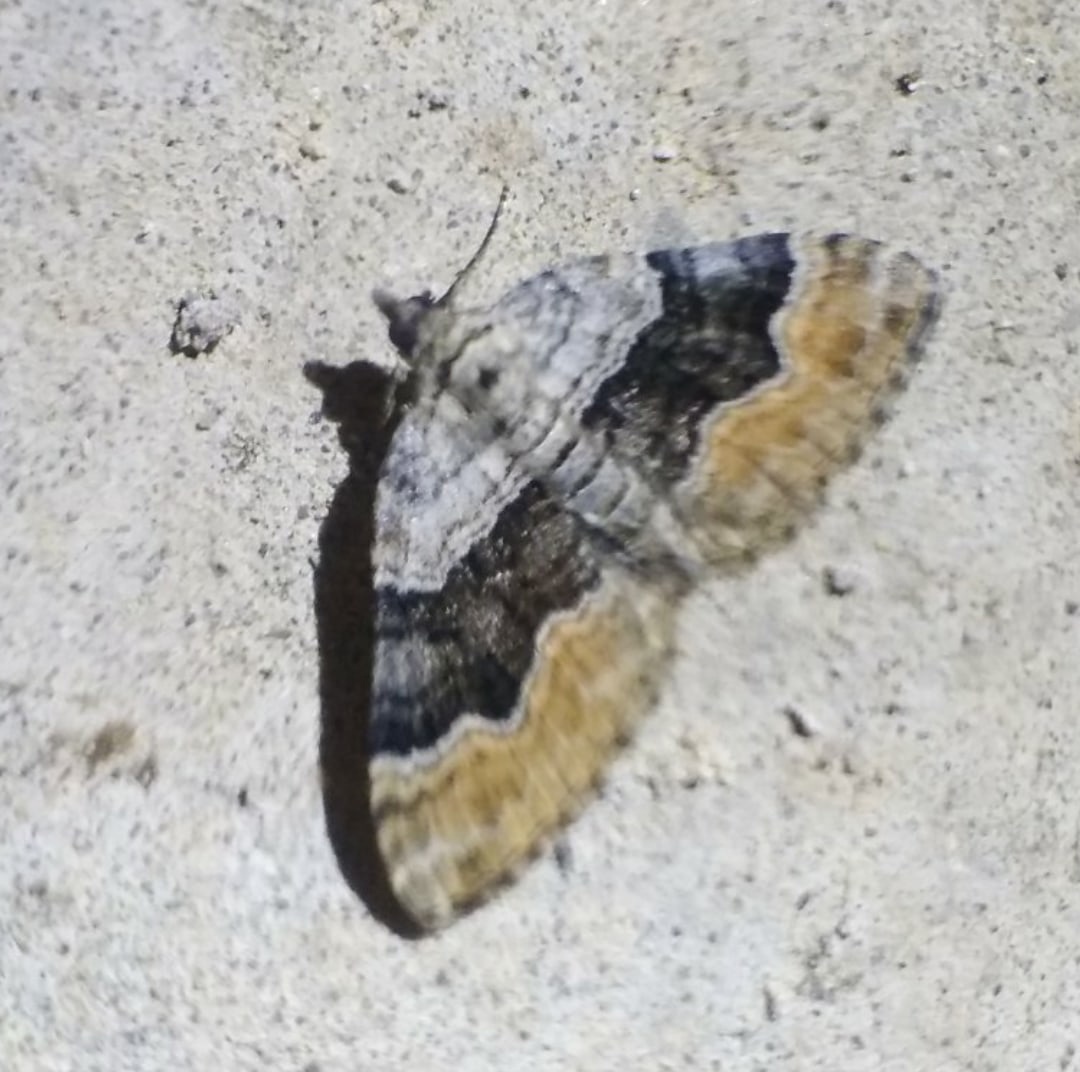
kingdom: Animalia
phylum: Arthropoda
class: Insecta
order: Lepidoptera
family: Geometridae
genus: Xanthorhoe
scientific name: Xanthorhoe quadrifasiata
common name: Large twin-spot carpet
